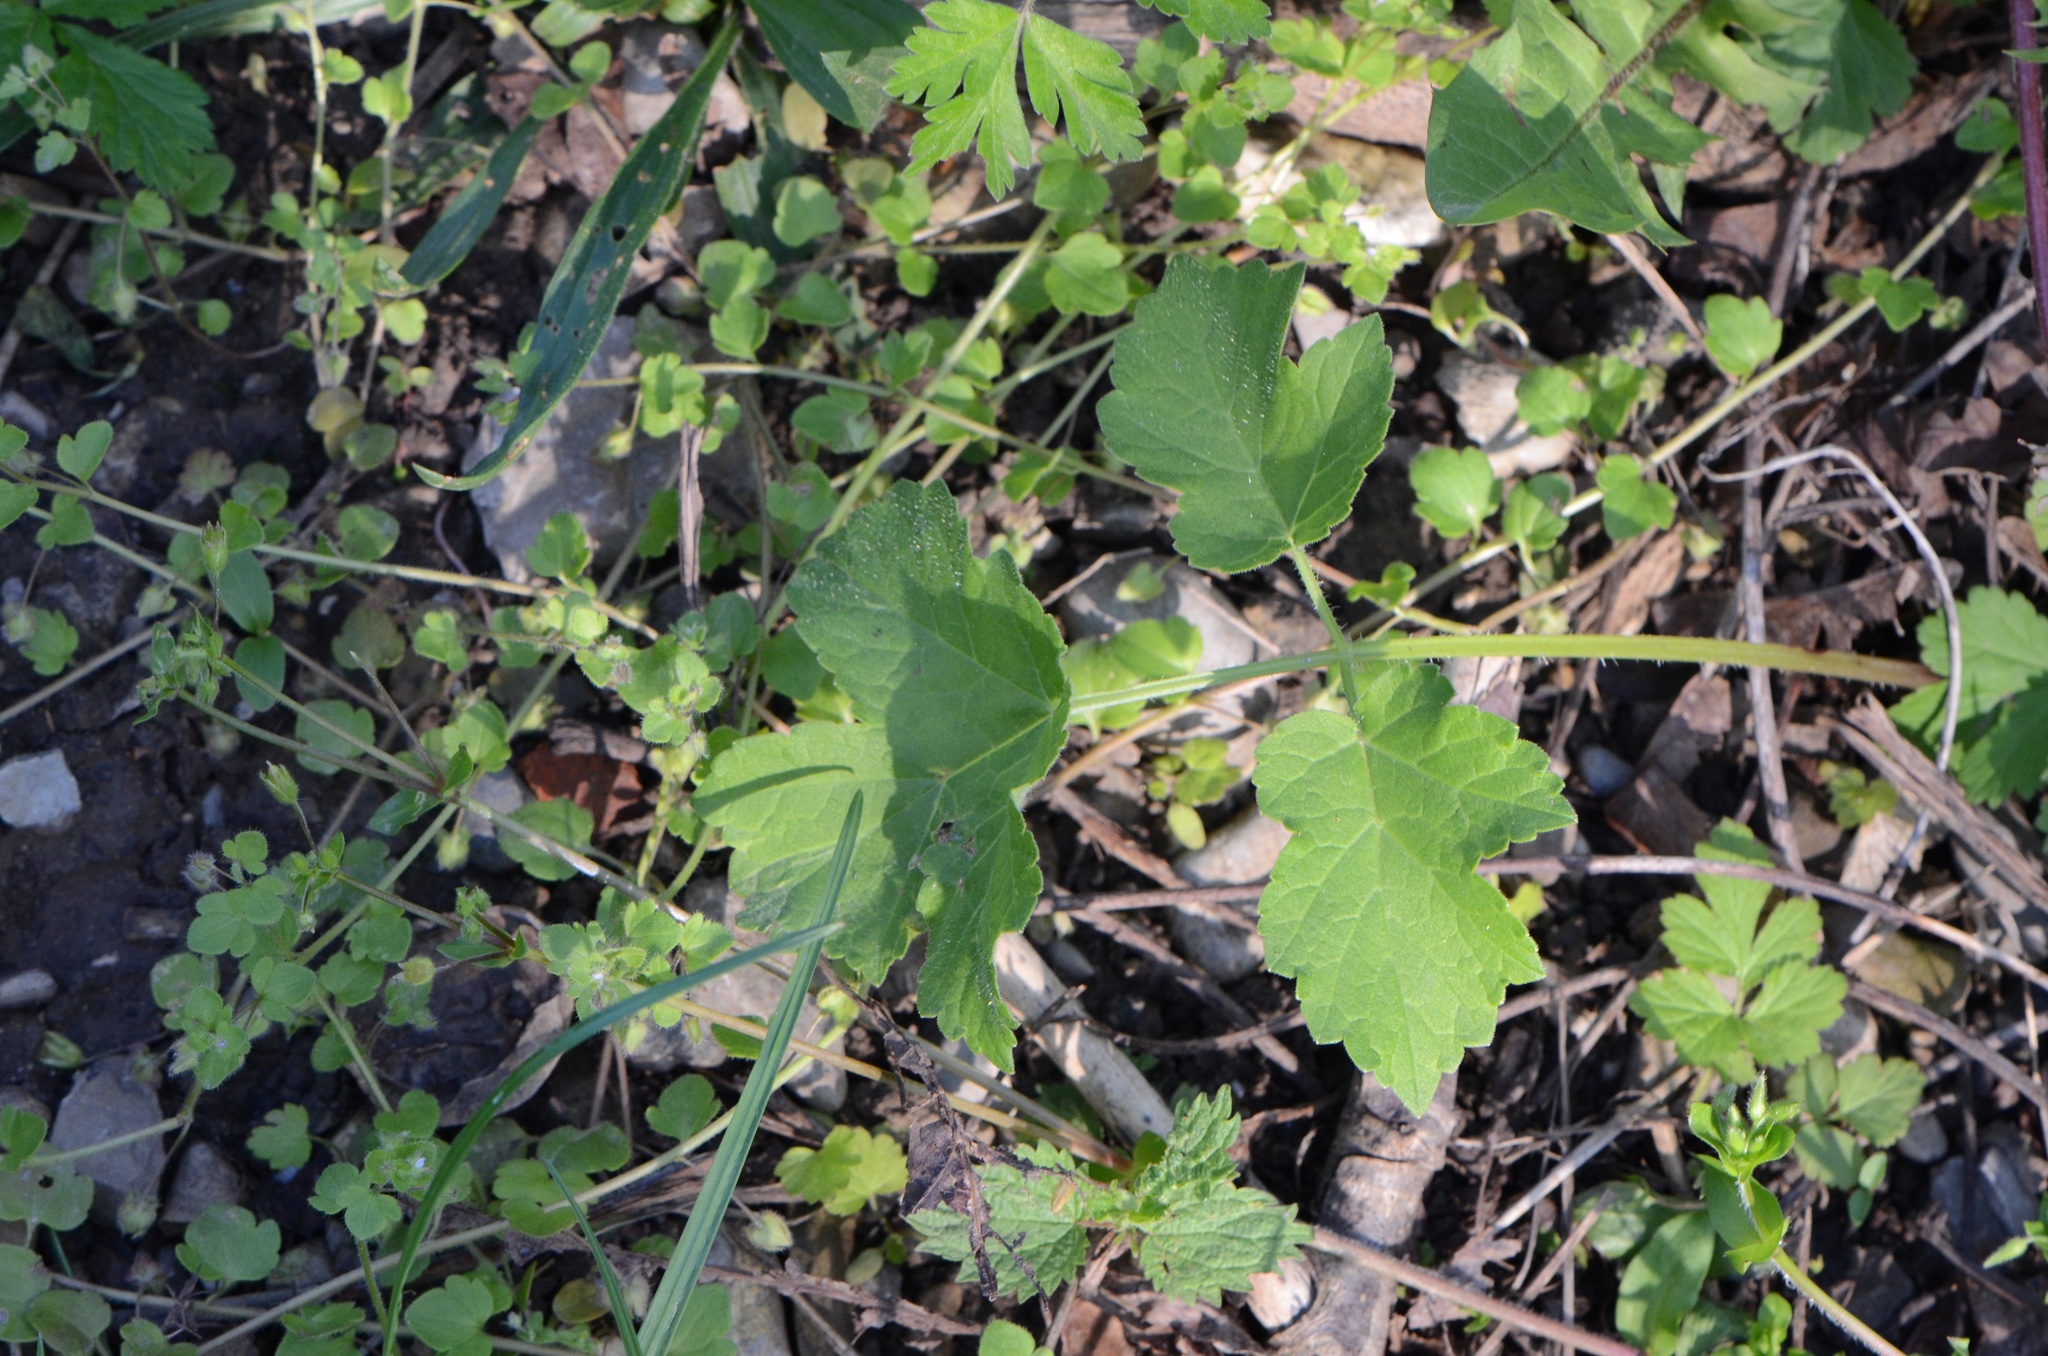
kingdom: Plantae
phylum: Tracheophyta
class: Magnoliopsida
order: Apiales
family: Apiaceae
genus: Heracleum
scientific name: Heracleum sphondylium
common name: Hogweed
